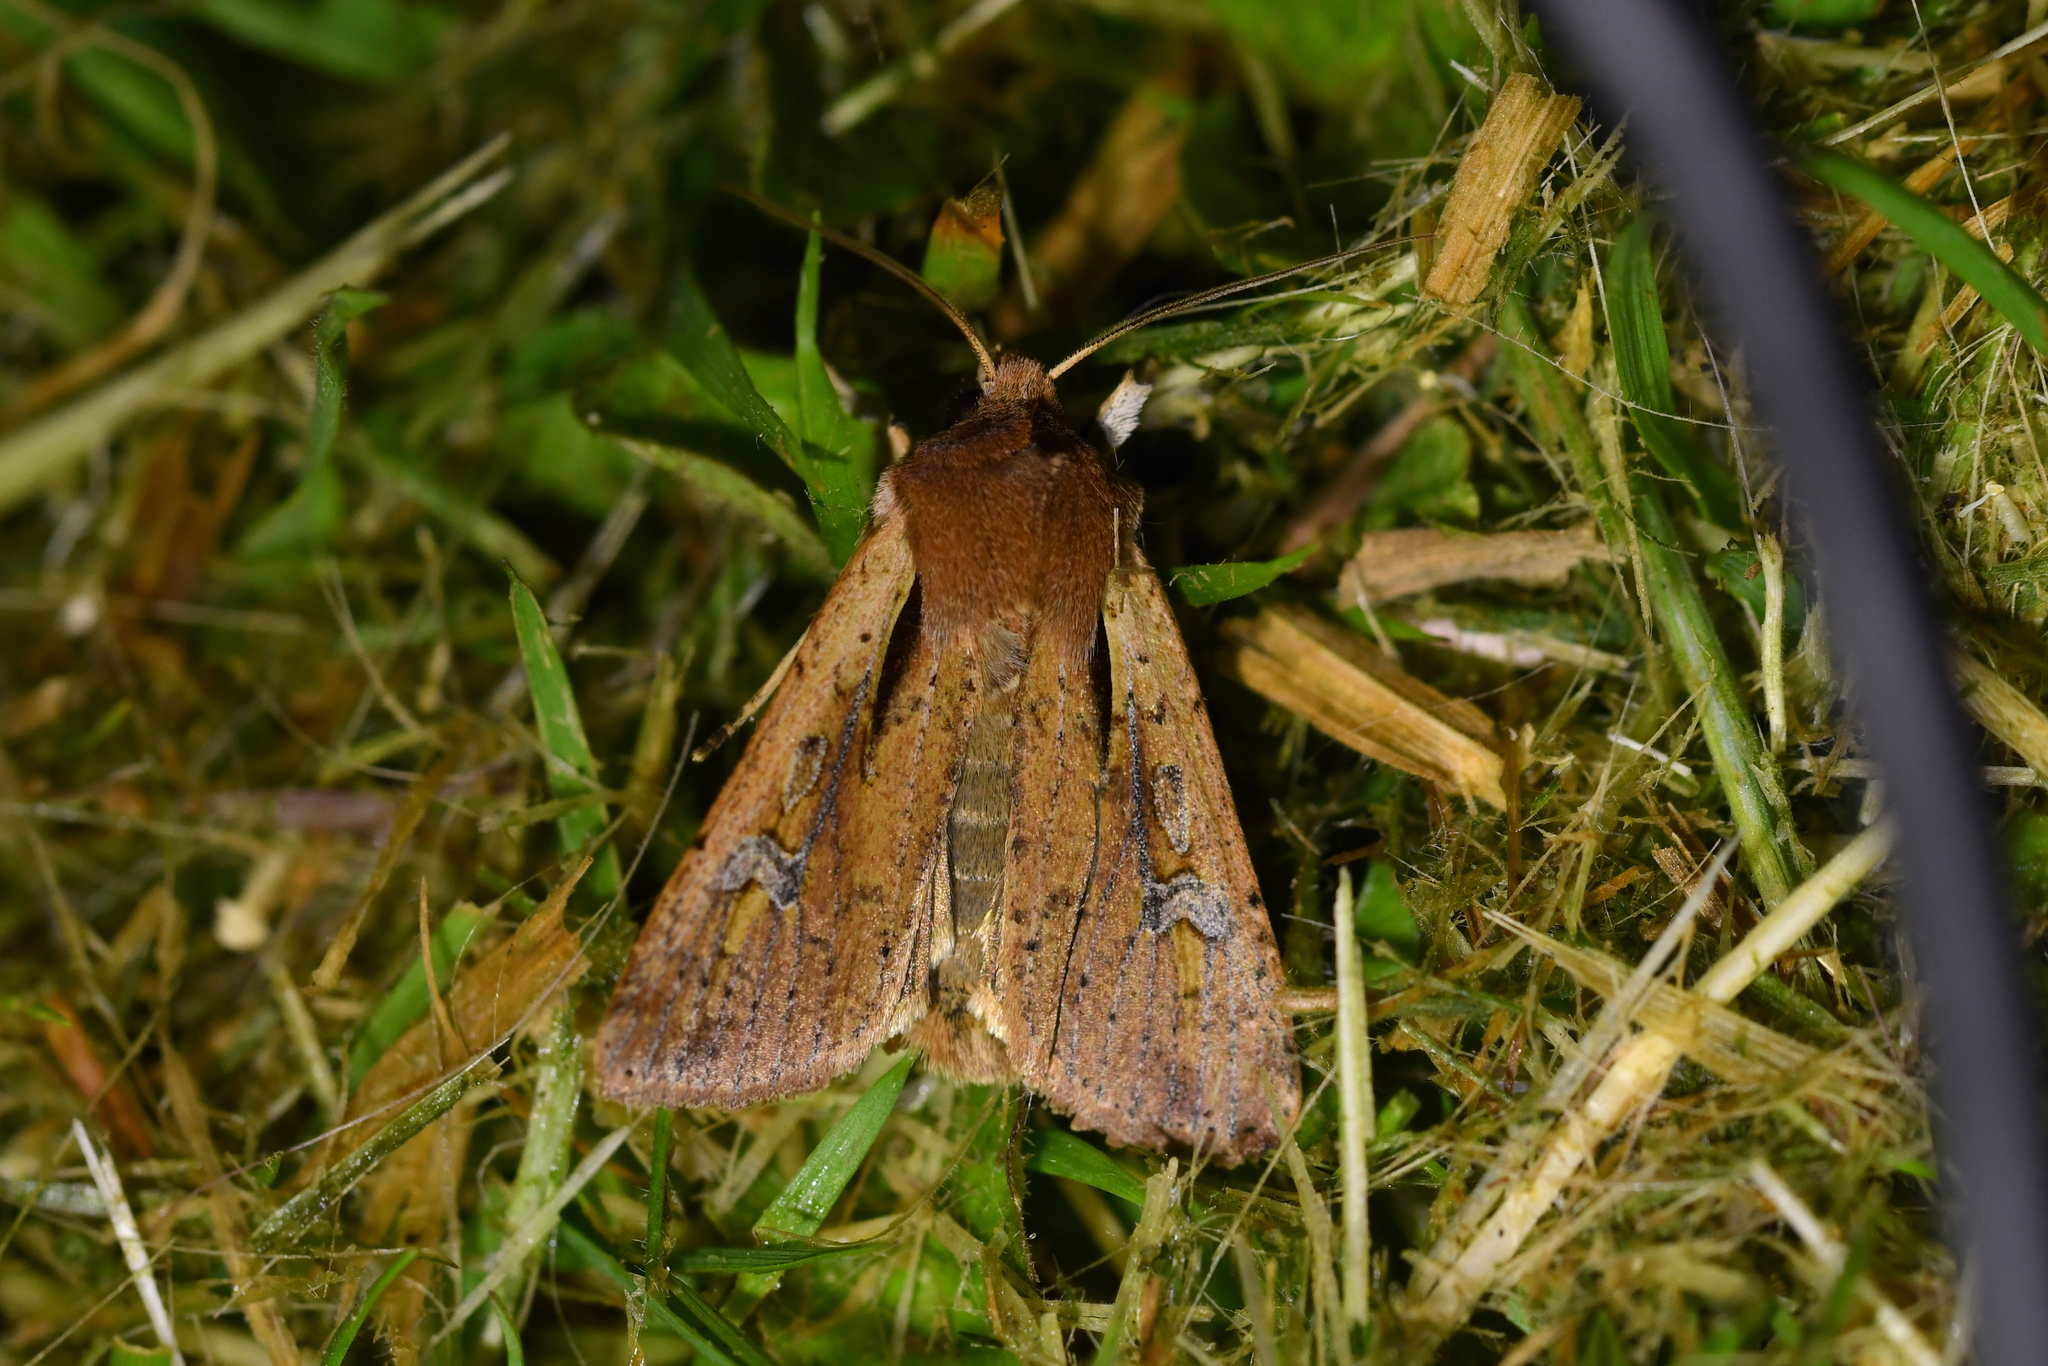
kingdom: Animalia
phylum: Arthropoda
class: Insecta
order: Lepidoptera
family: Noctuidae
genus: Ichneutica
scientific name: Ichneutica atristriga
